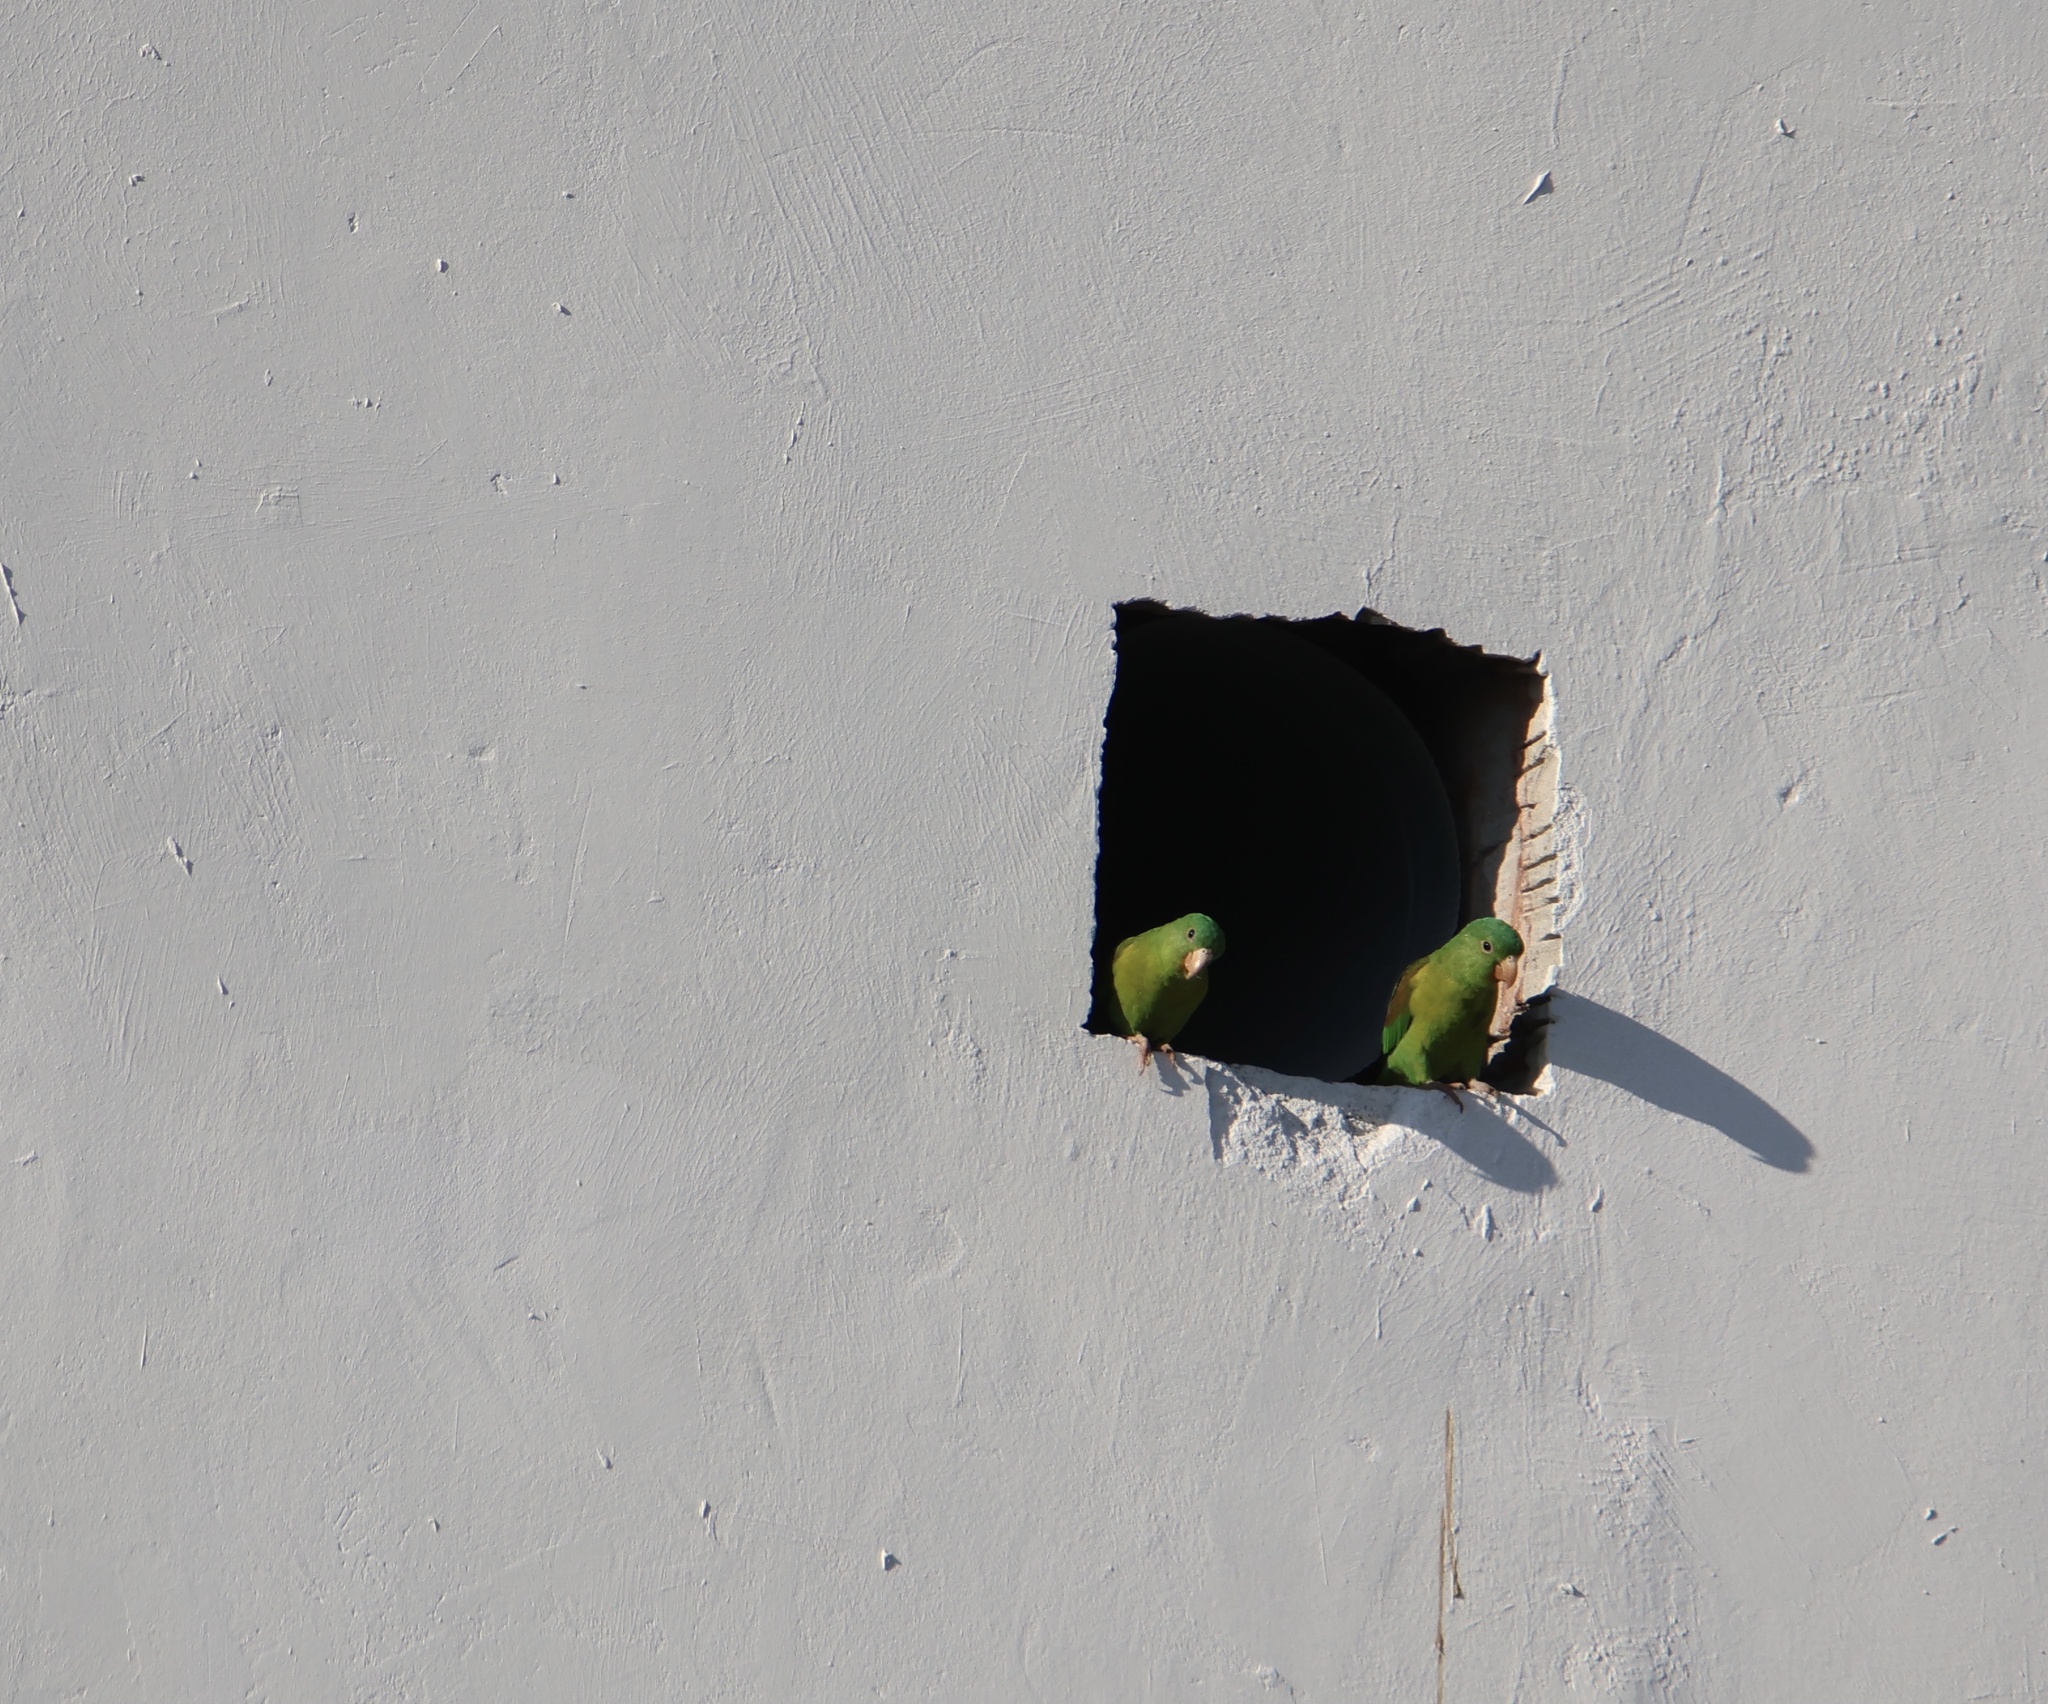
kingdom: Animalia
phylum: Chordata
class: Aves
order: Psittaciformes
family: Psittacidae
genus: Brotogeris
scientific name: Brotogeris jugularis
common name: Orange-chinned parakeet
